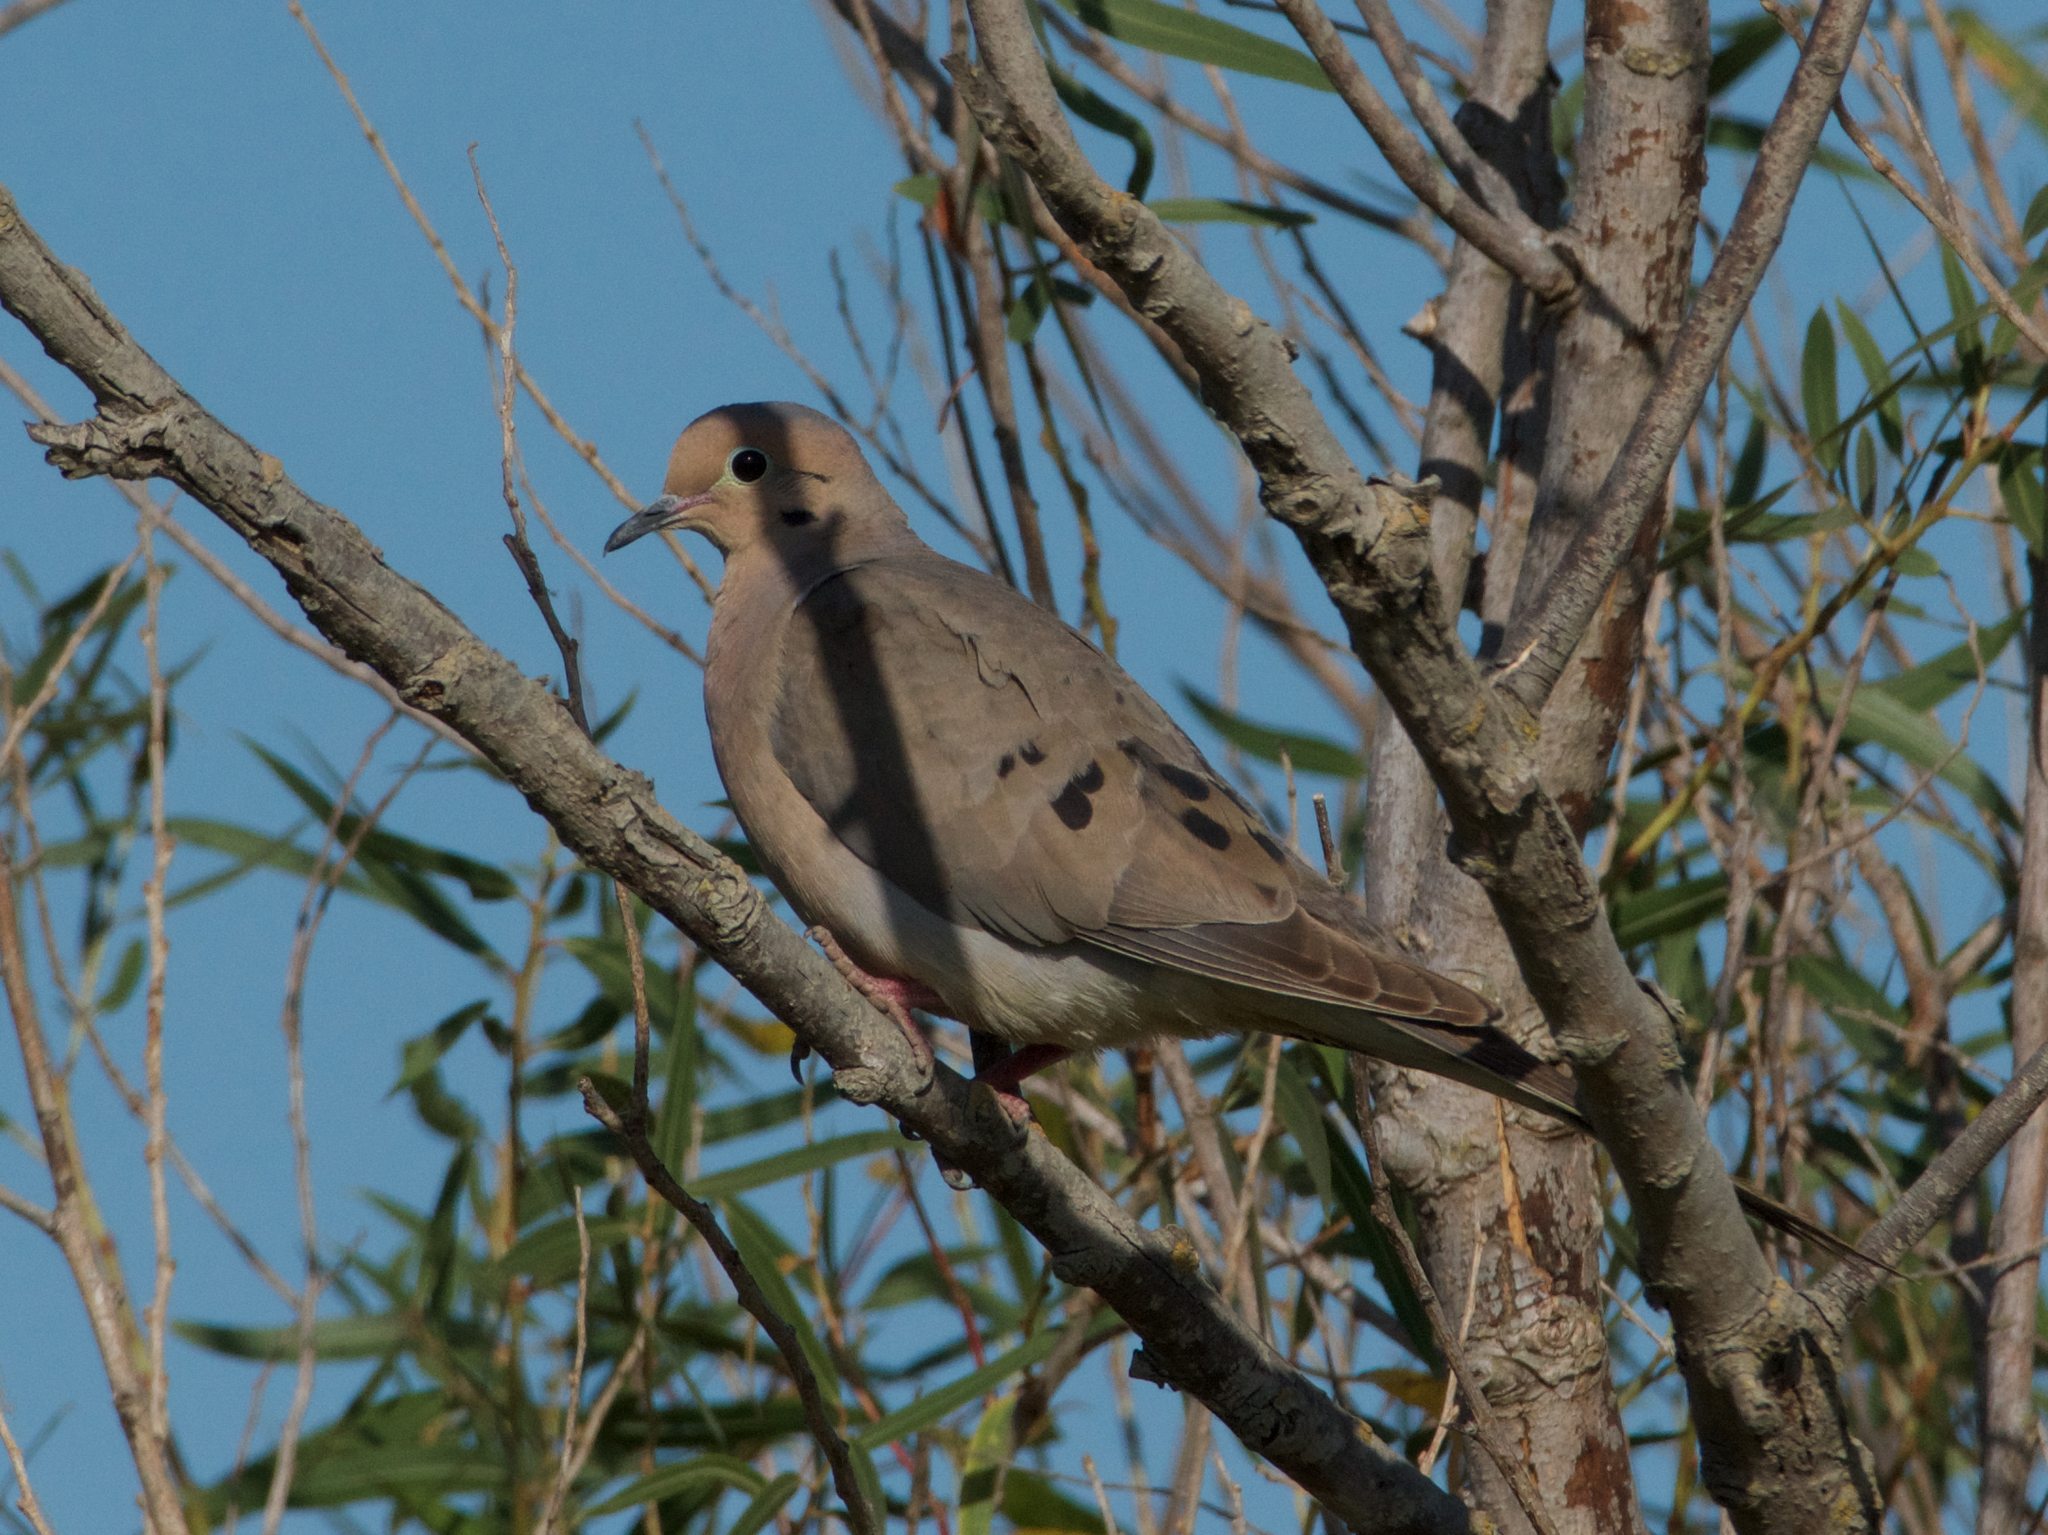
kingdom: Animalia
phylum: Chordata
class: Aves
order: Columbiformes
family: Columbidae
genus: Zenaida
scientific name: Zenaida macroura
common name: Mourning dove
